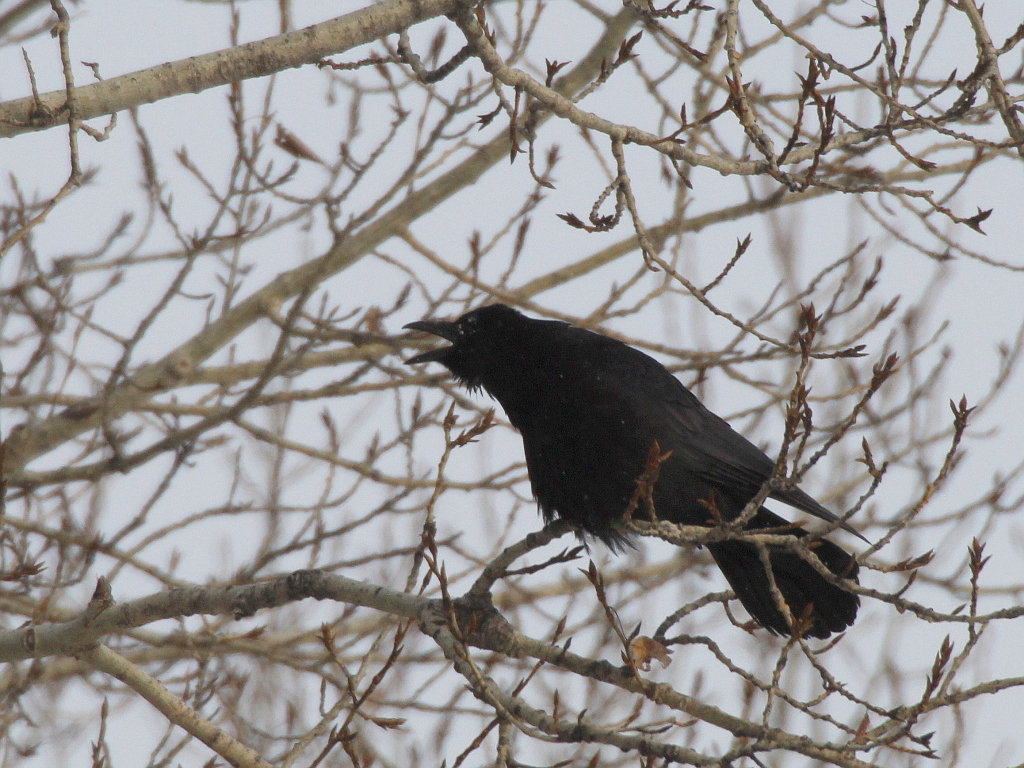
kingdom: Animalia
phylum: Chordata
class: Aves
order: Passeriformes
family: Corvidae
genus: Corvus
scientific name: Corvus corone
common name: Carrion crow
